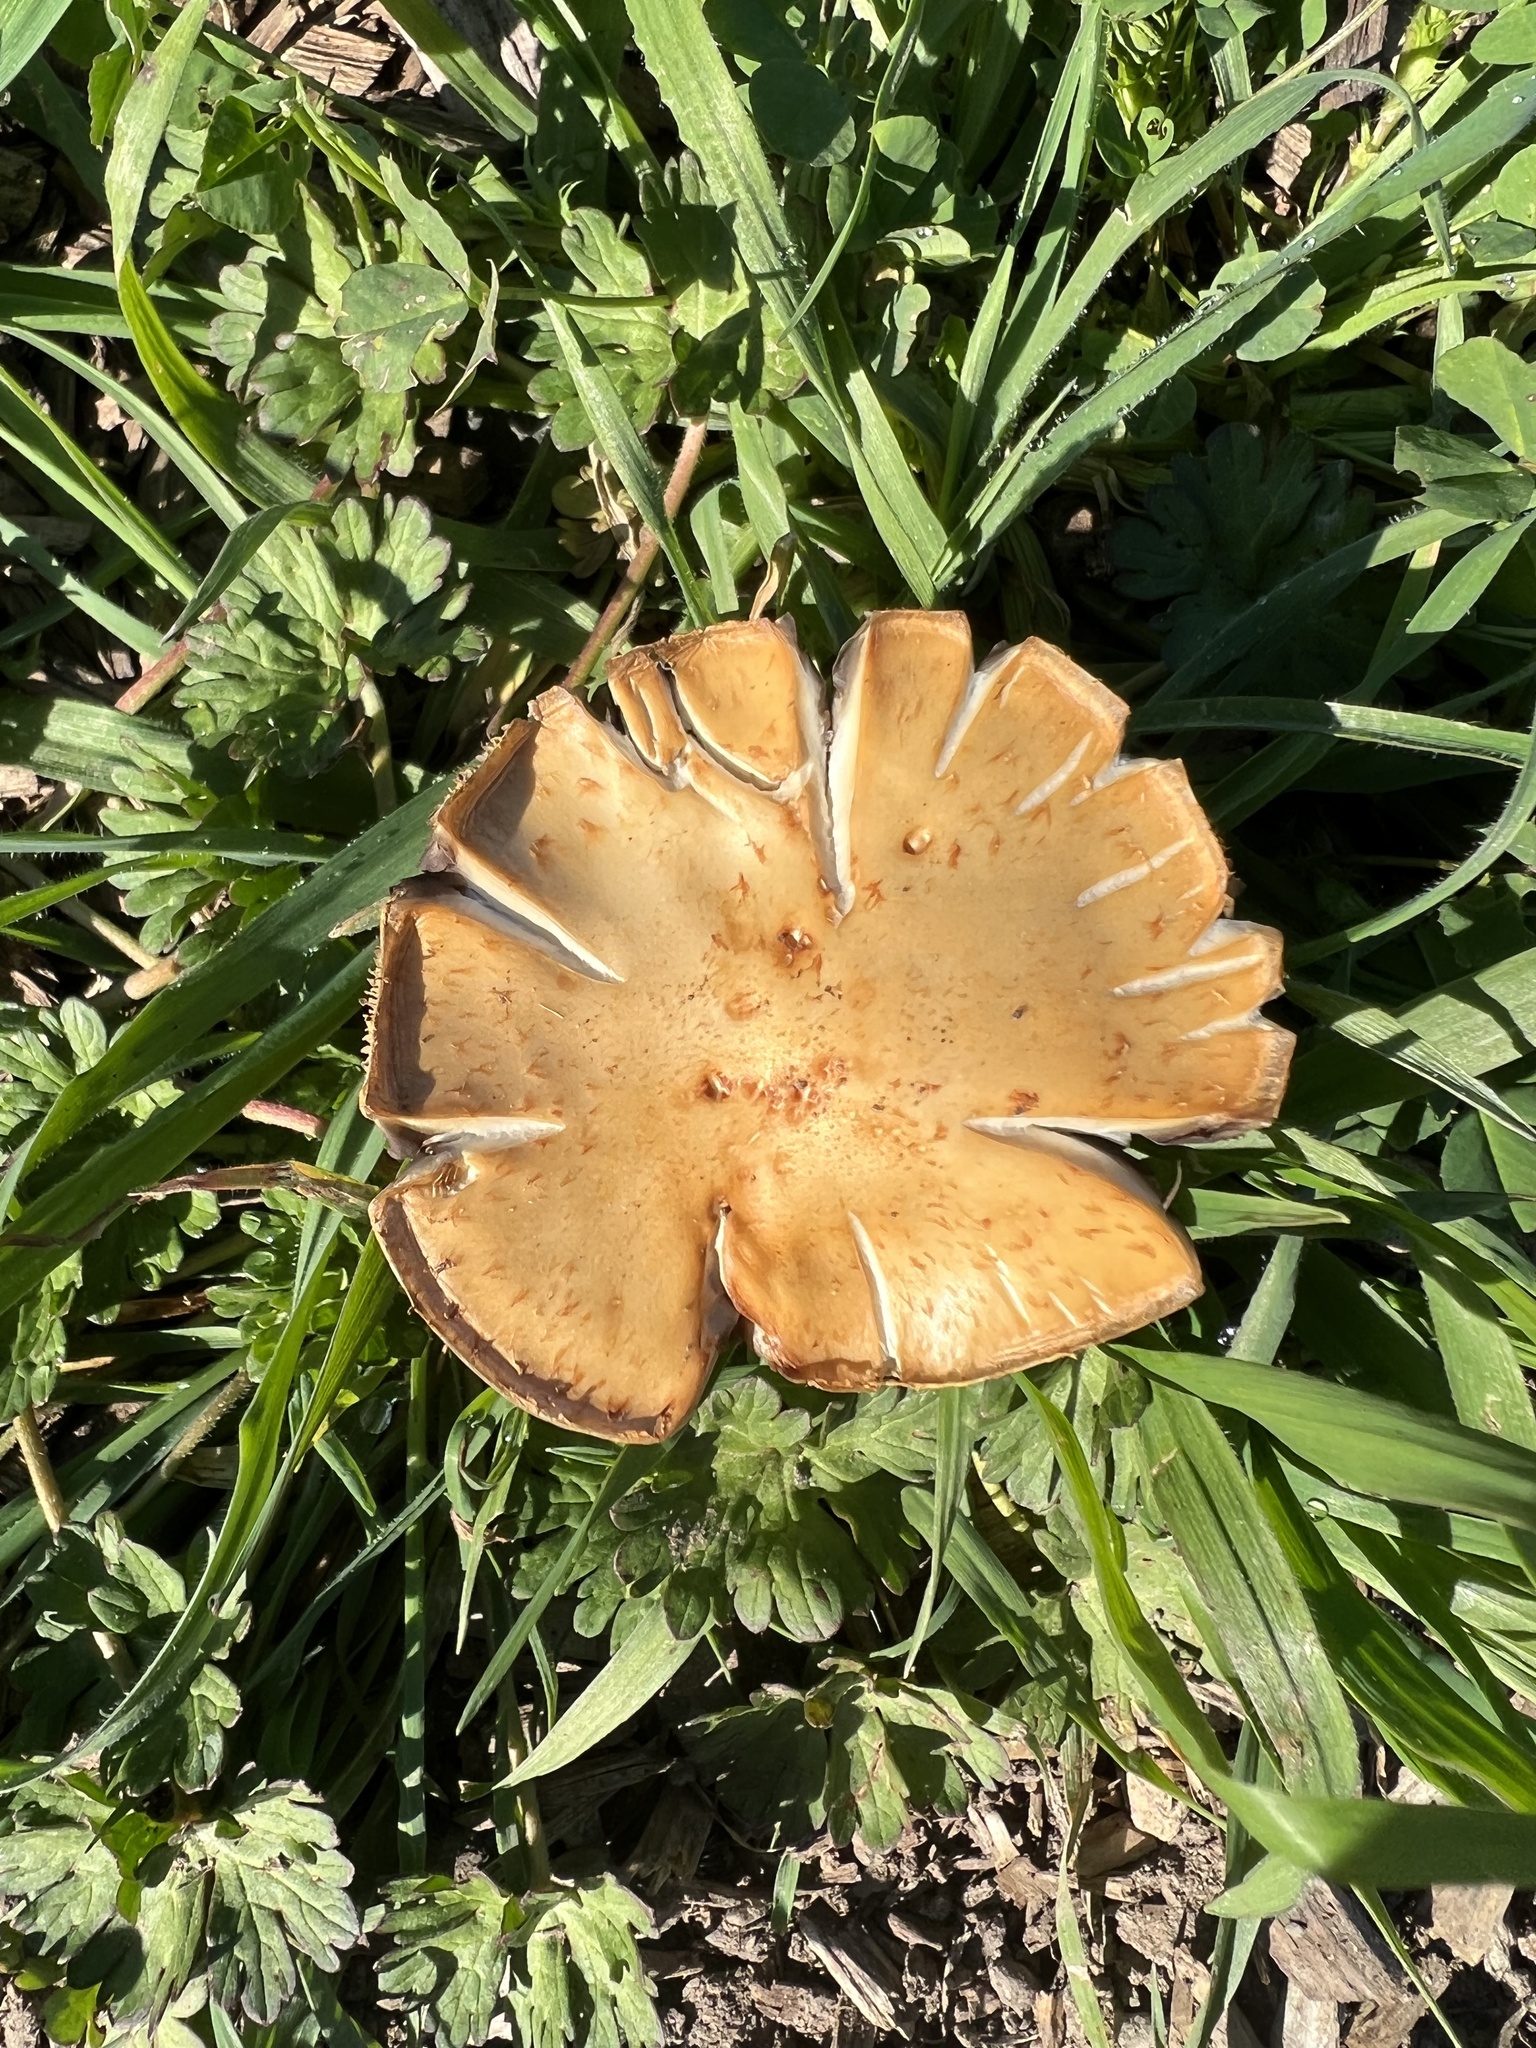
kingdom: Fungi
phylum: Basidiomycota
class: Agaricomycetes
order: Agaricales
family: Strophariaceae
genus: Leratiomyces
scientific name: Leratiomyces percevalii
